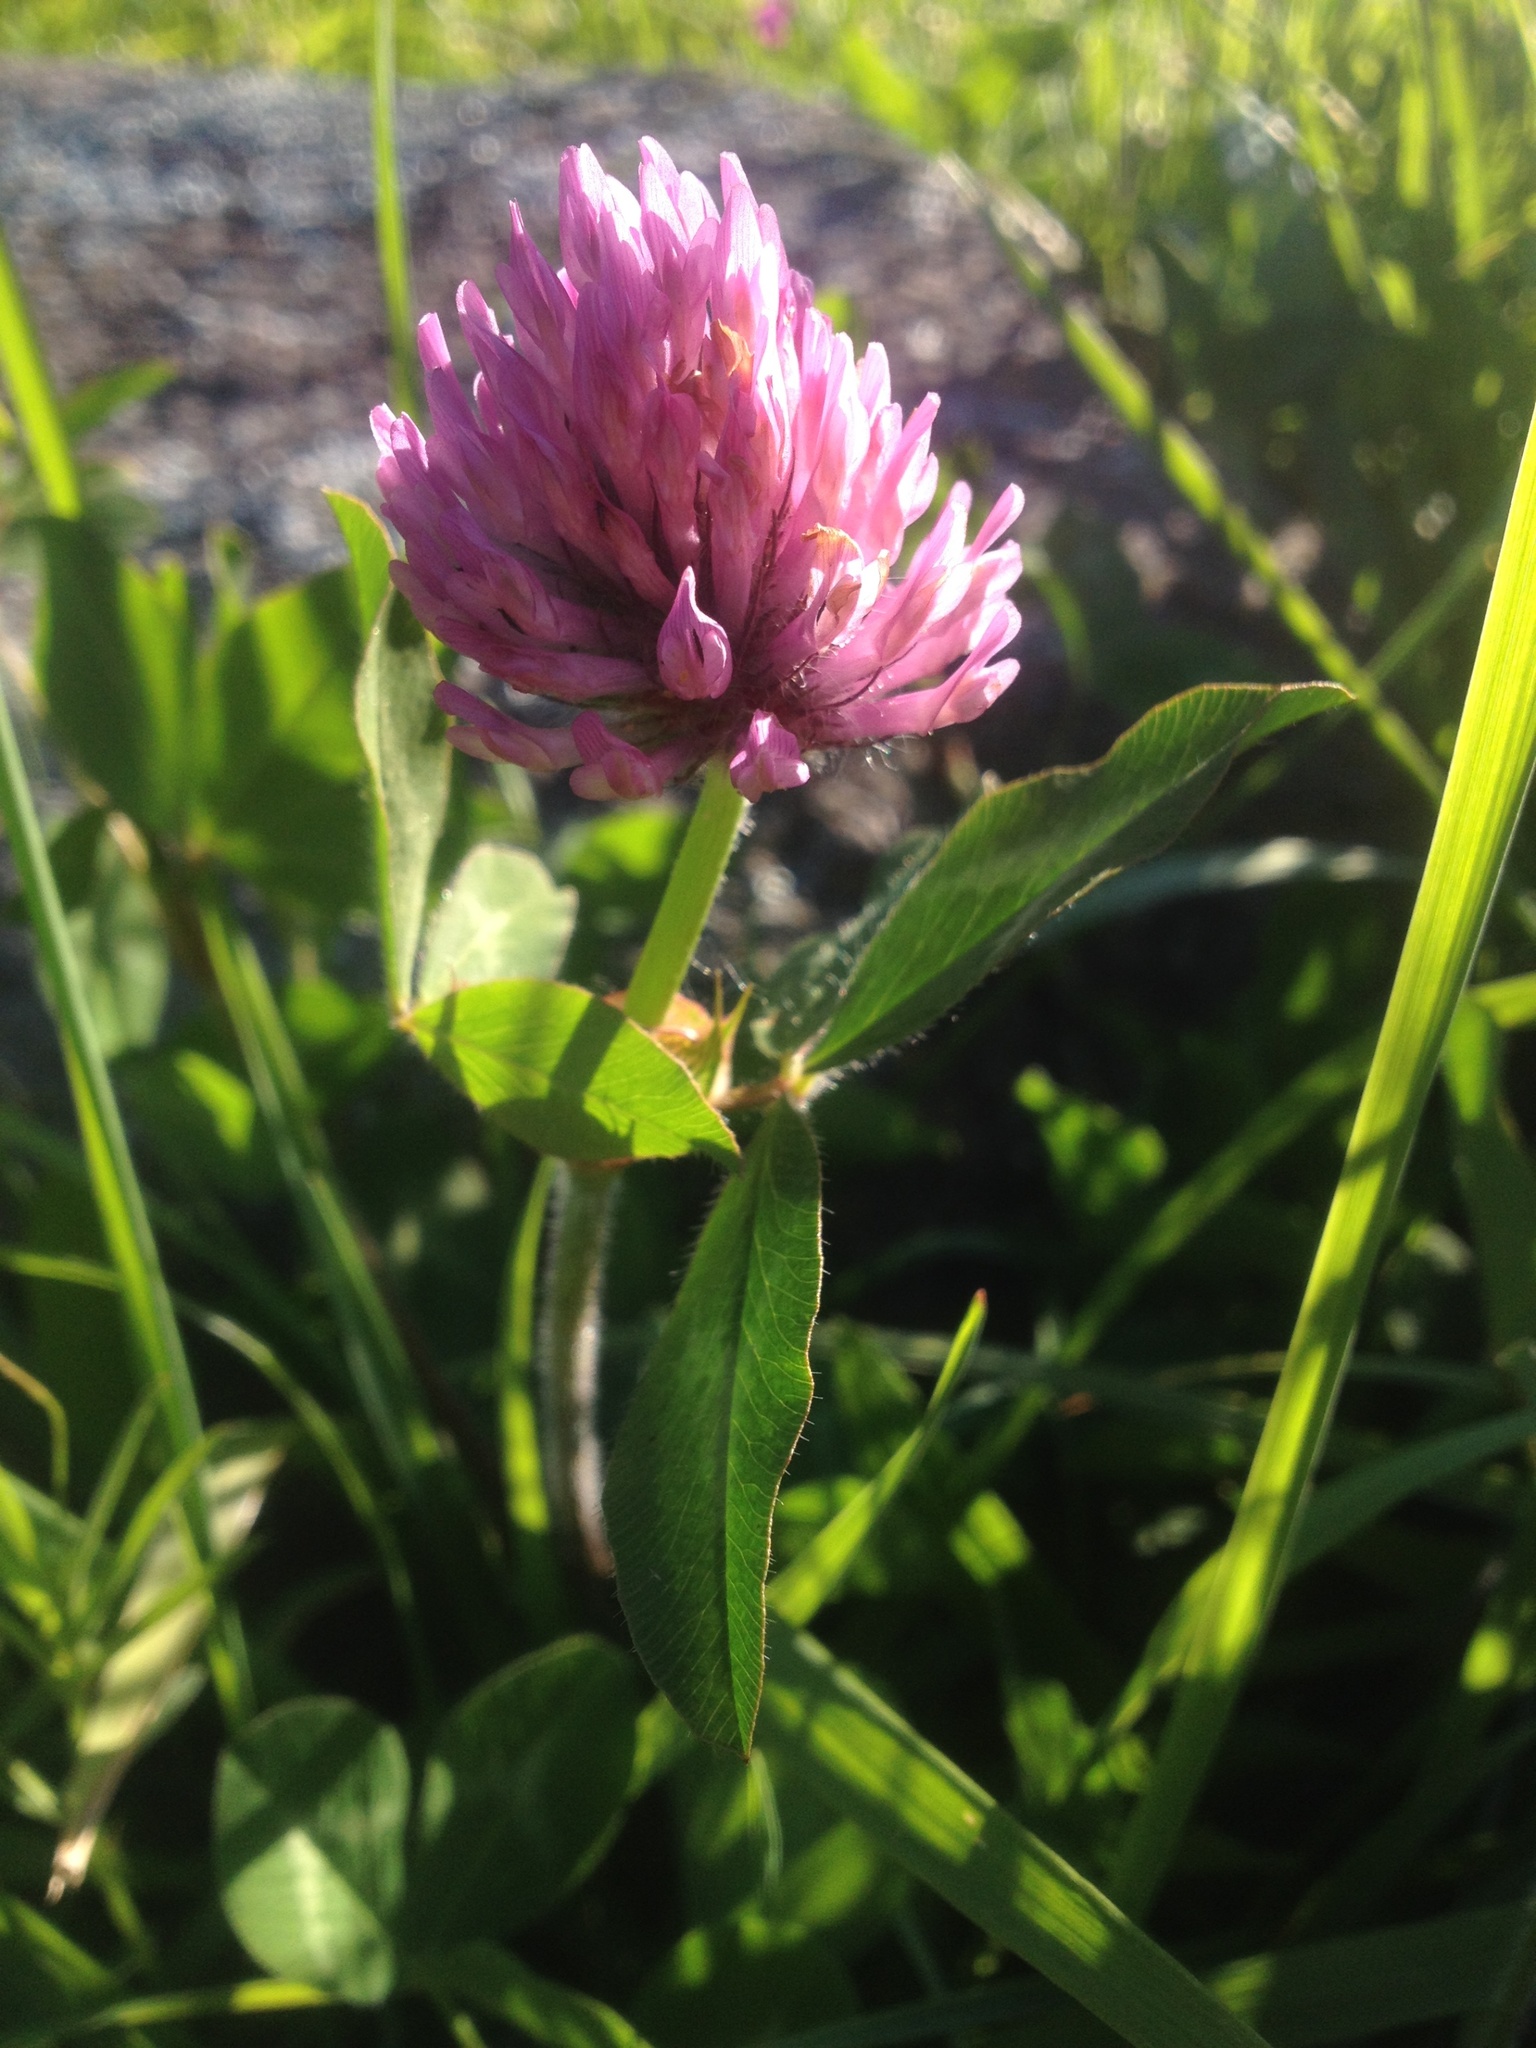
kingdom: Plantae
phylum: Tracheophyta
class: Magnoliopsida
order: Fabales
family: Fabaceae
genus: Trifolium
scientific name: Trifolium pratense
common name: Red clover
